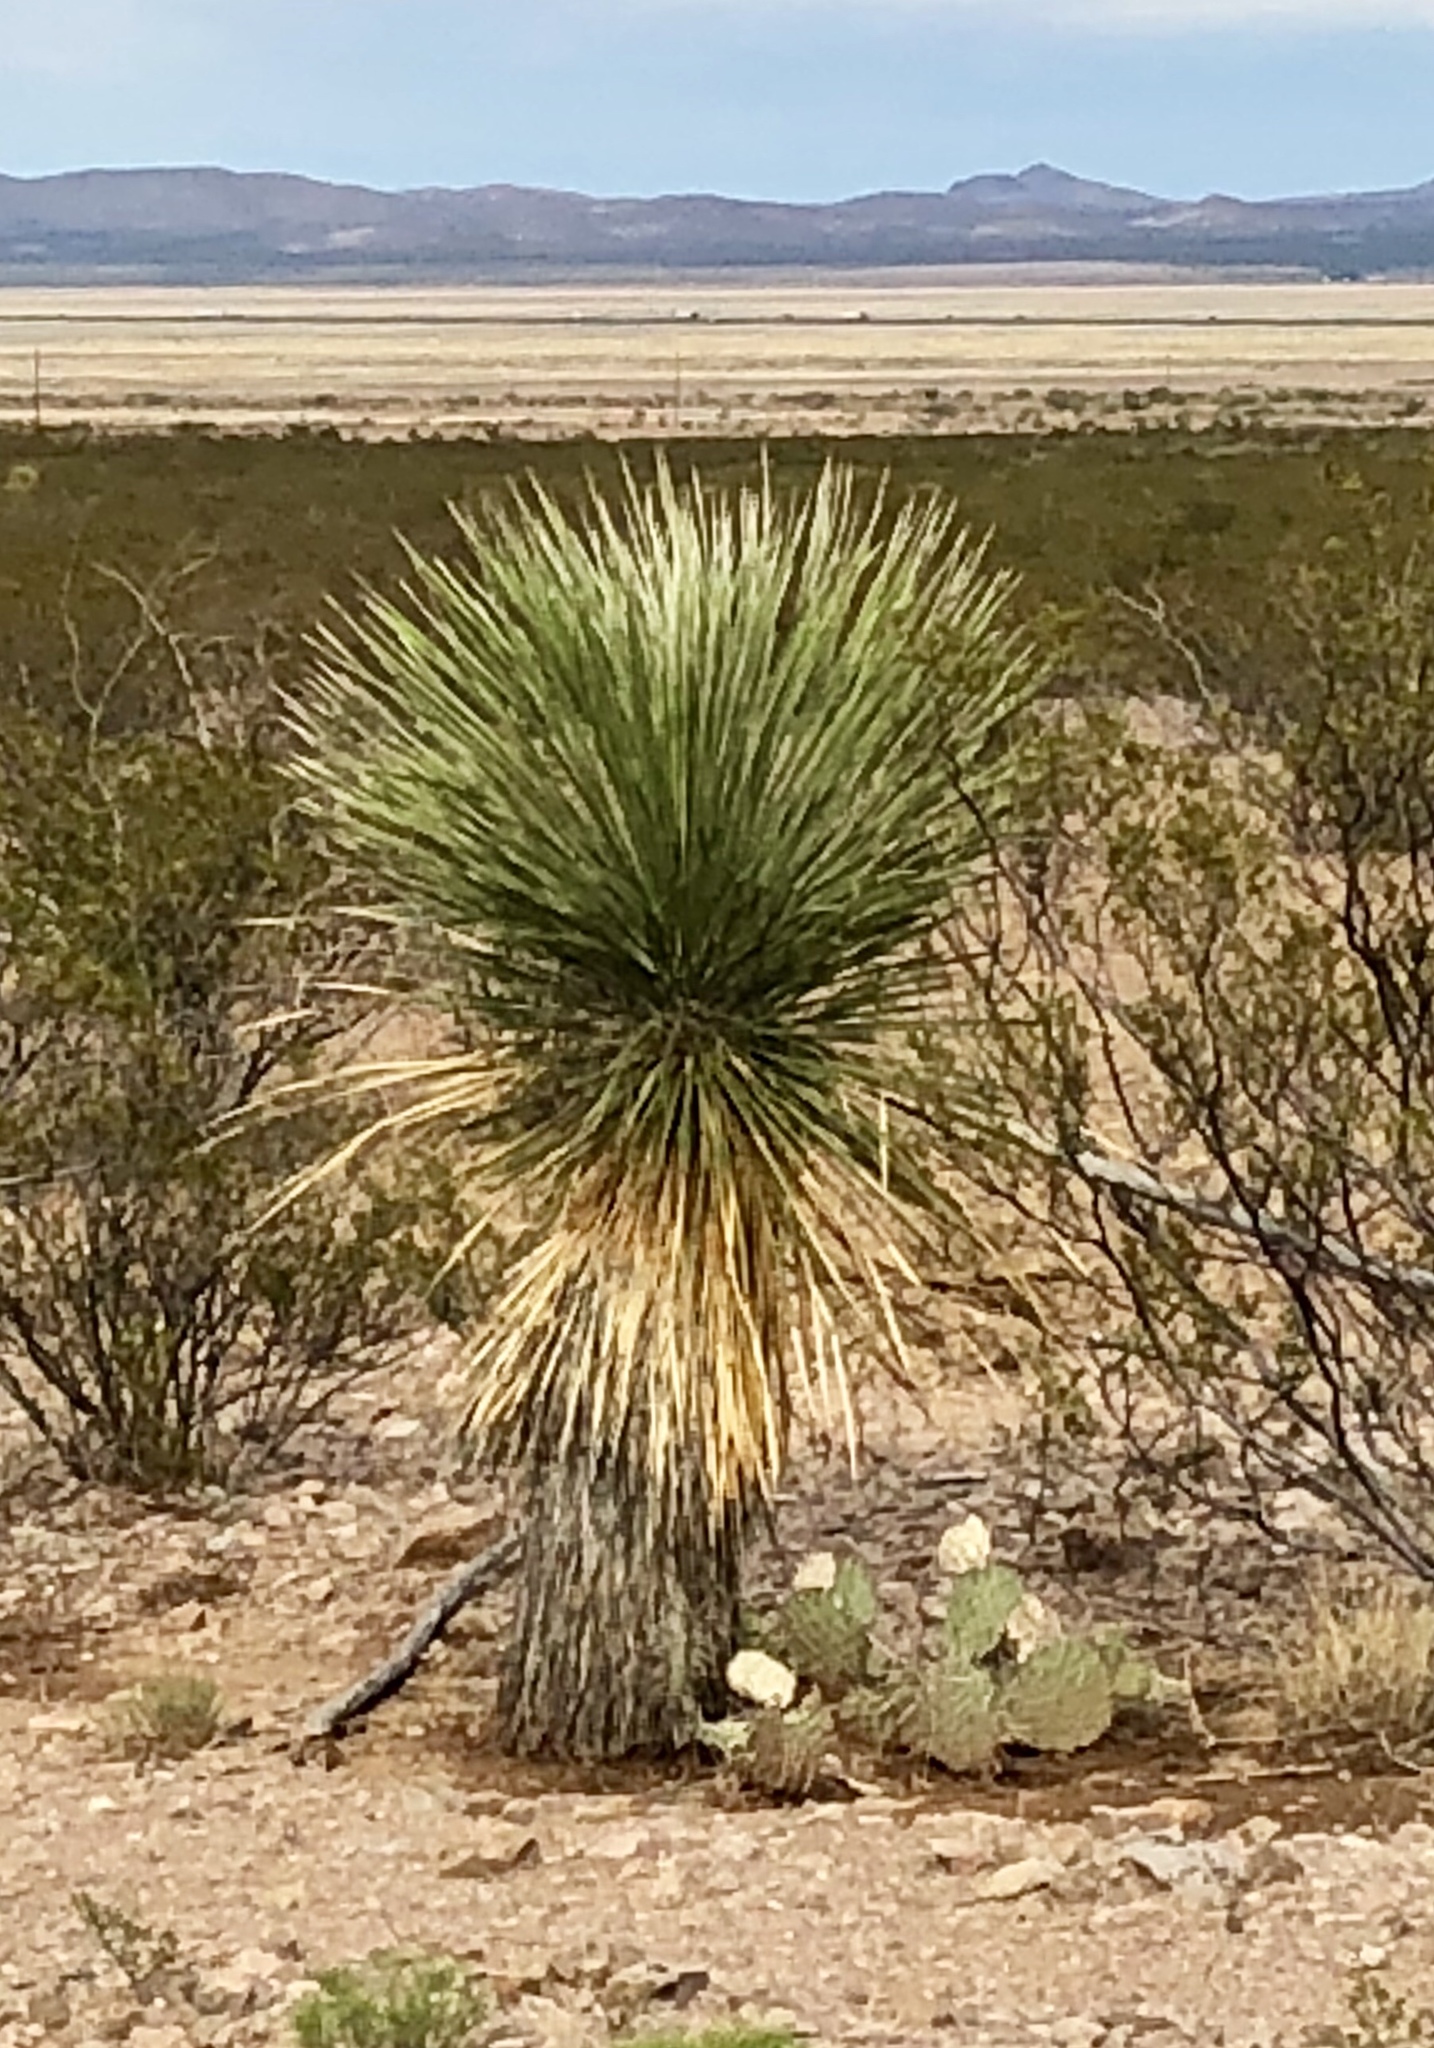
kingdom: Plantae
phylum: Tracheophyta
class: Liliopsida
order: Asparagales
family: Asparagaceae
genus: Yucca
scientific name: Yucca elata
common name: Palmella
